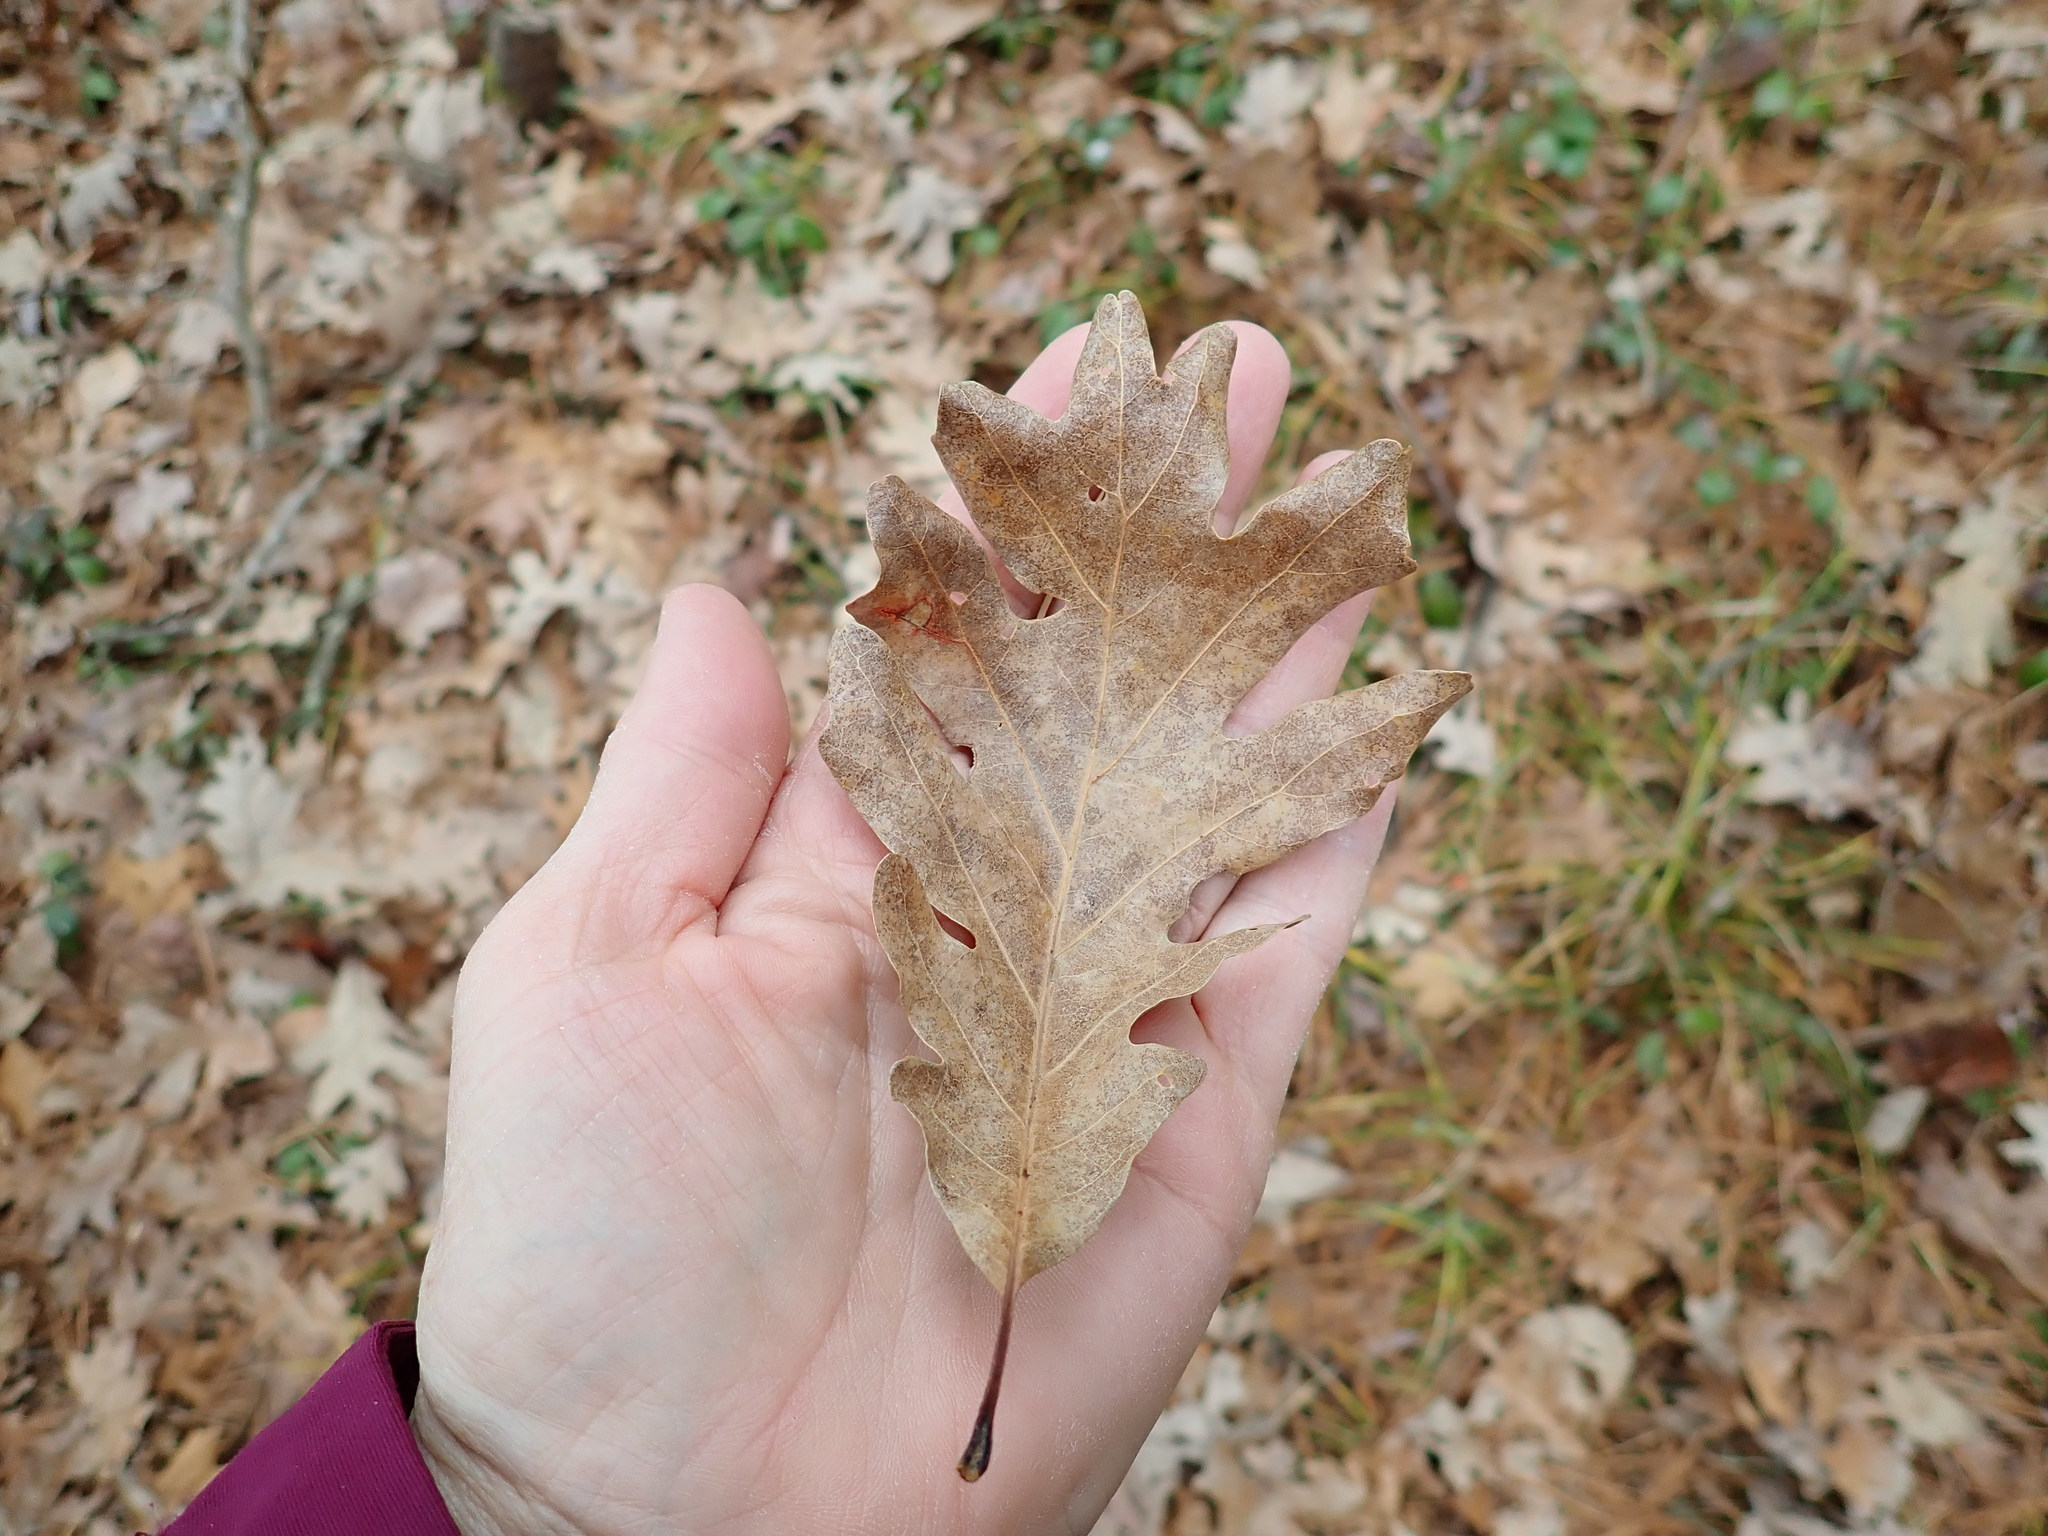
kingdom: Plantae
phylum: Tracheophyta
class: Magnoliopsida
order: Fagales
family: Fagaceae
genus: Quercus
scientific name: Quercus alba
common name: White oak
